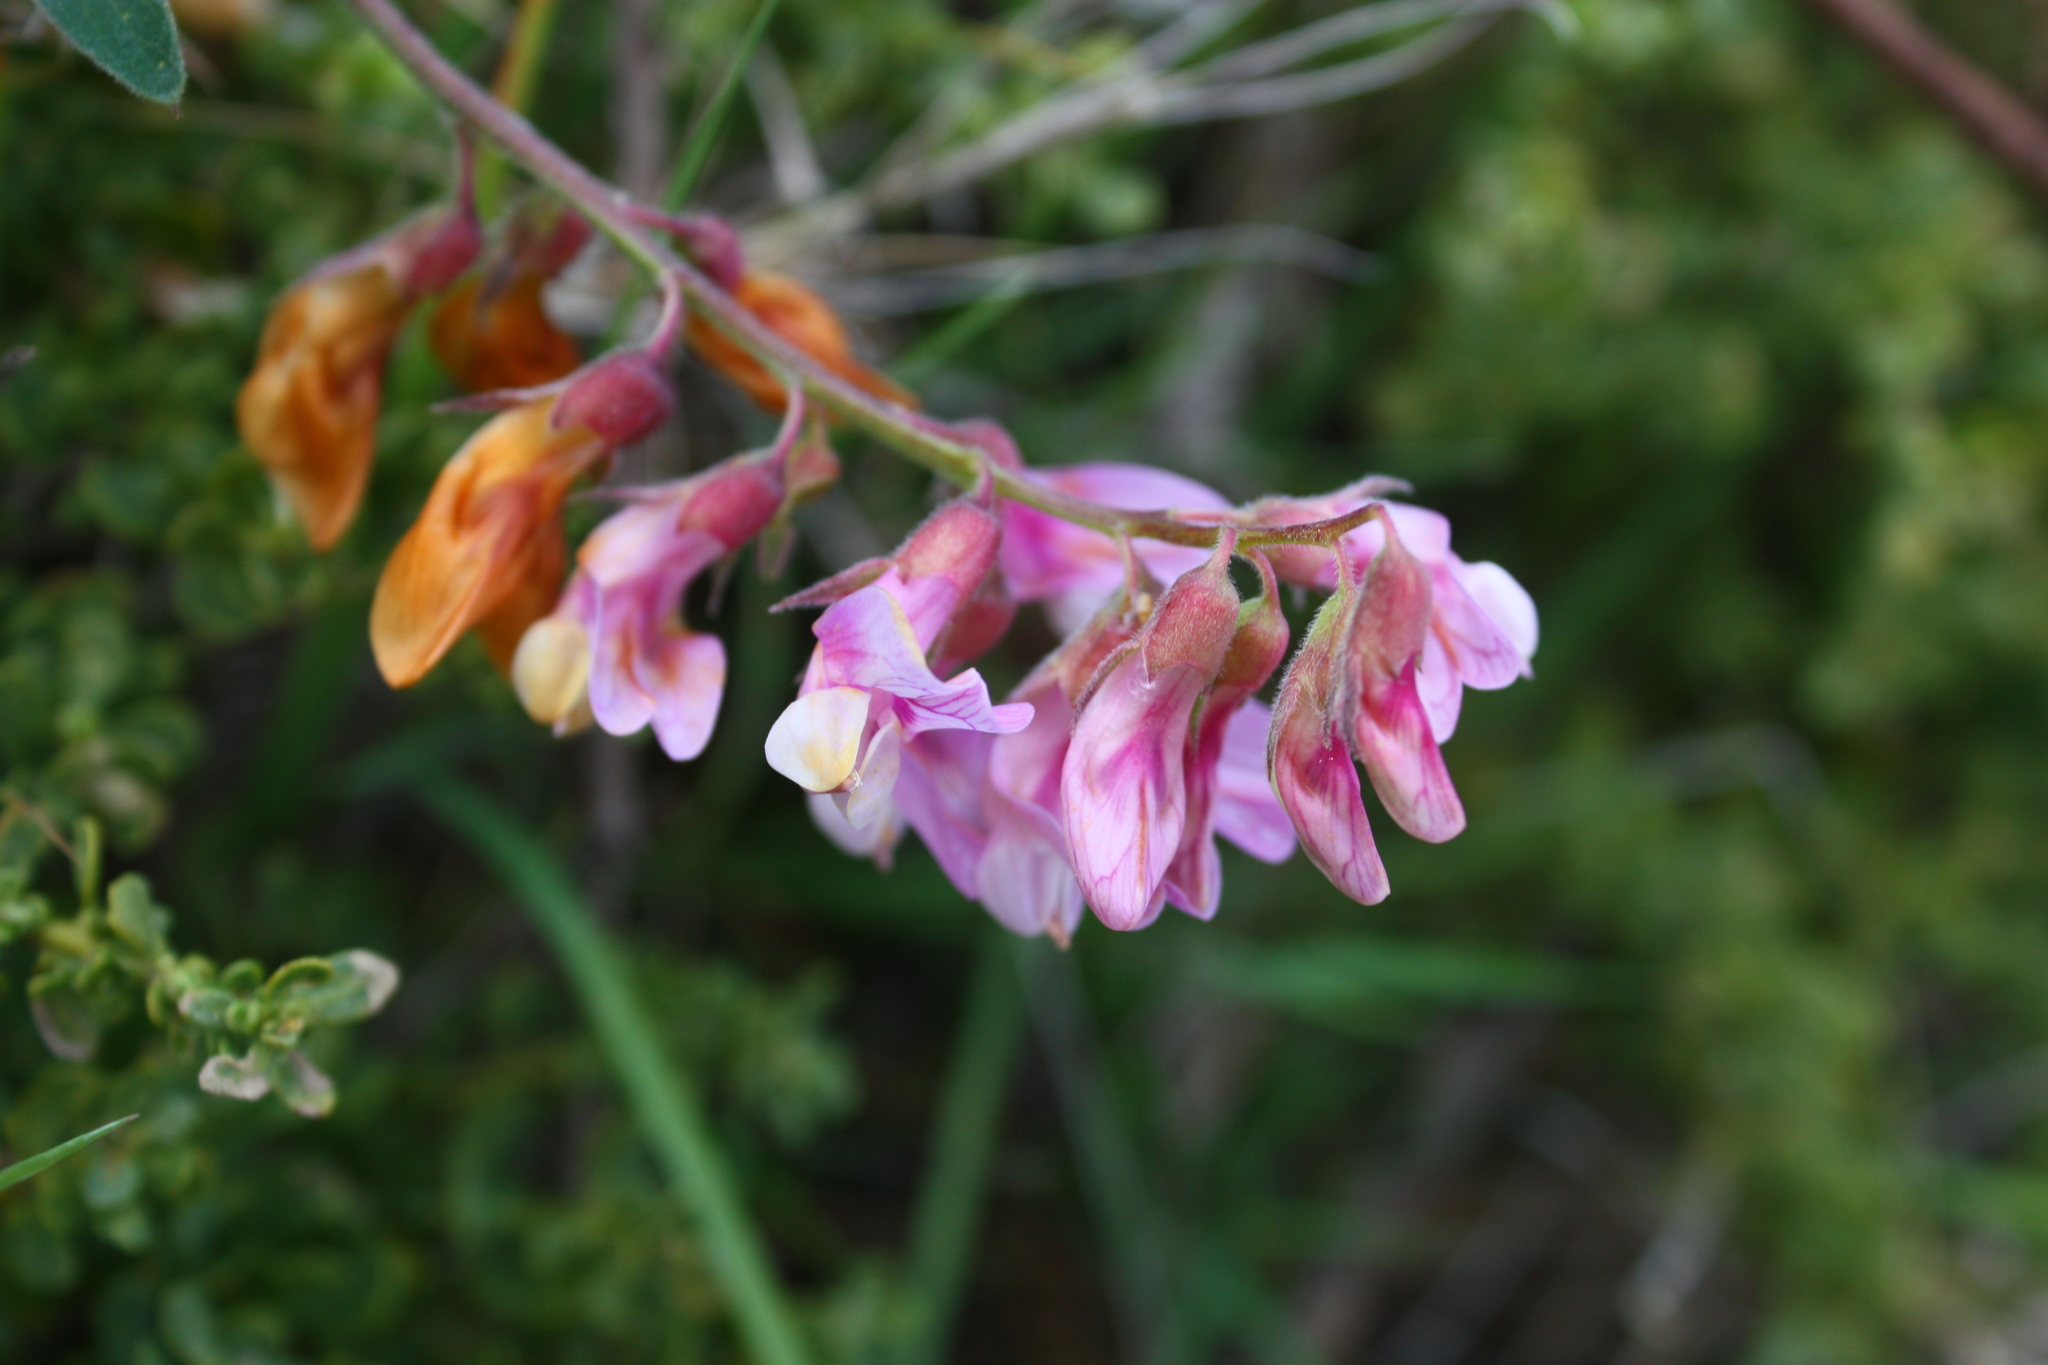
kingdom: Plantae
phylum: Tracheophyta
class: Magnoliopsida
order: Fabales
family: Fabaceae
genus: Lathyrus
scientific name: Lathyrus vestitus
